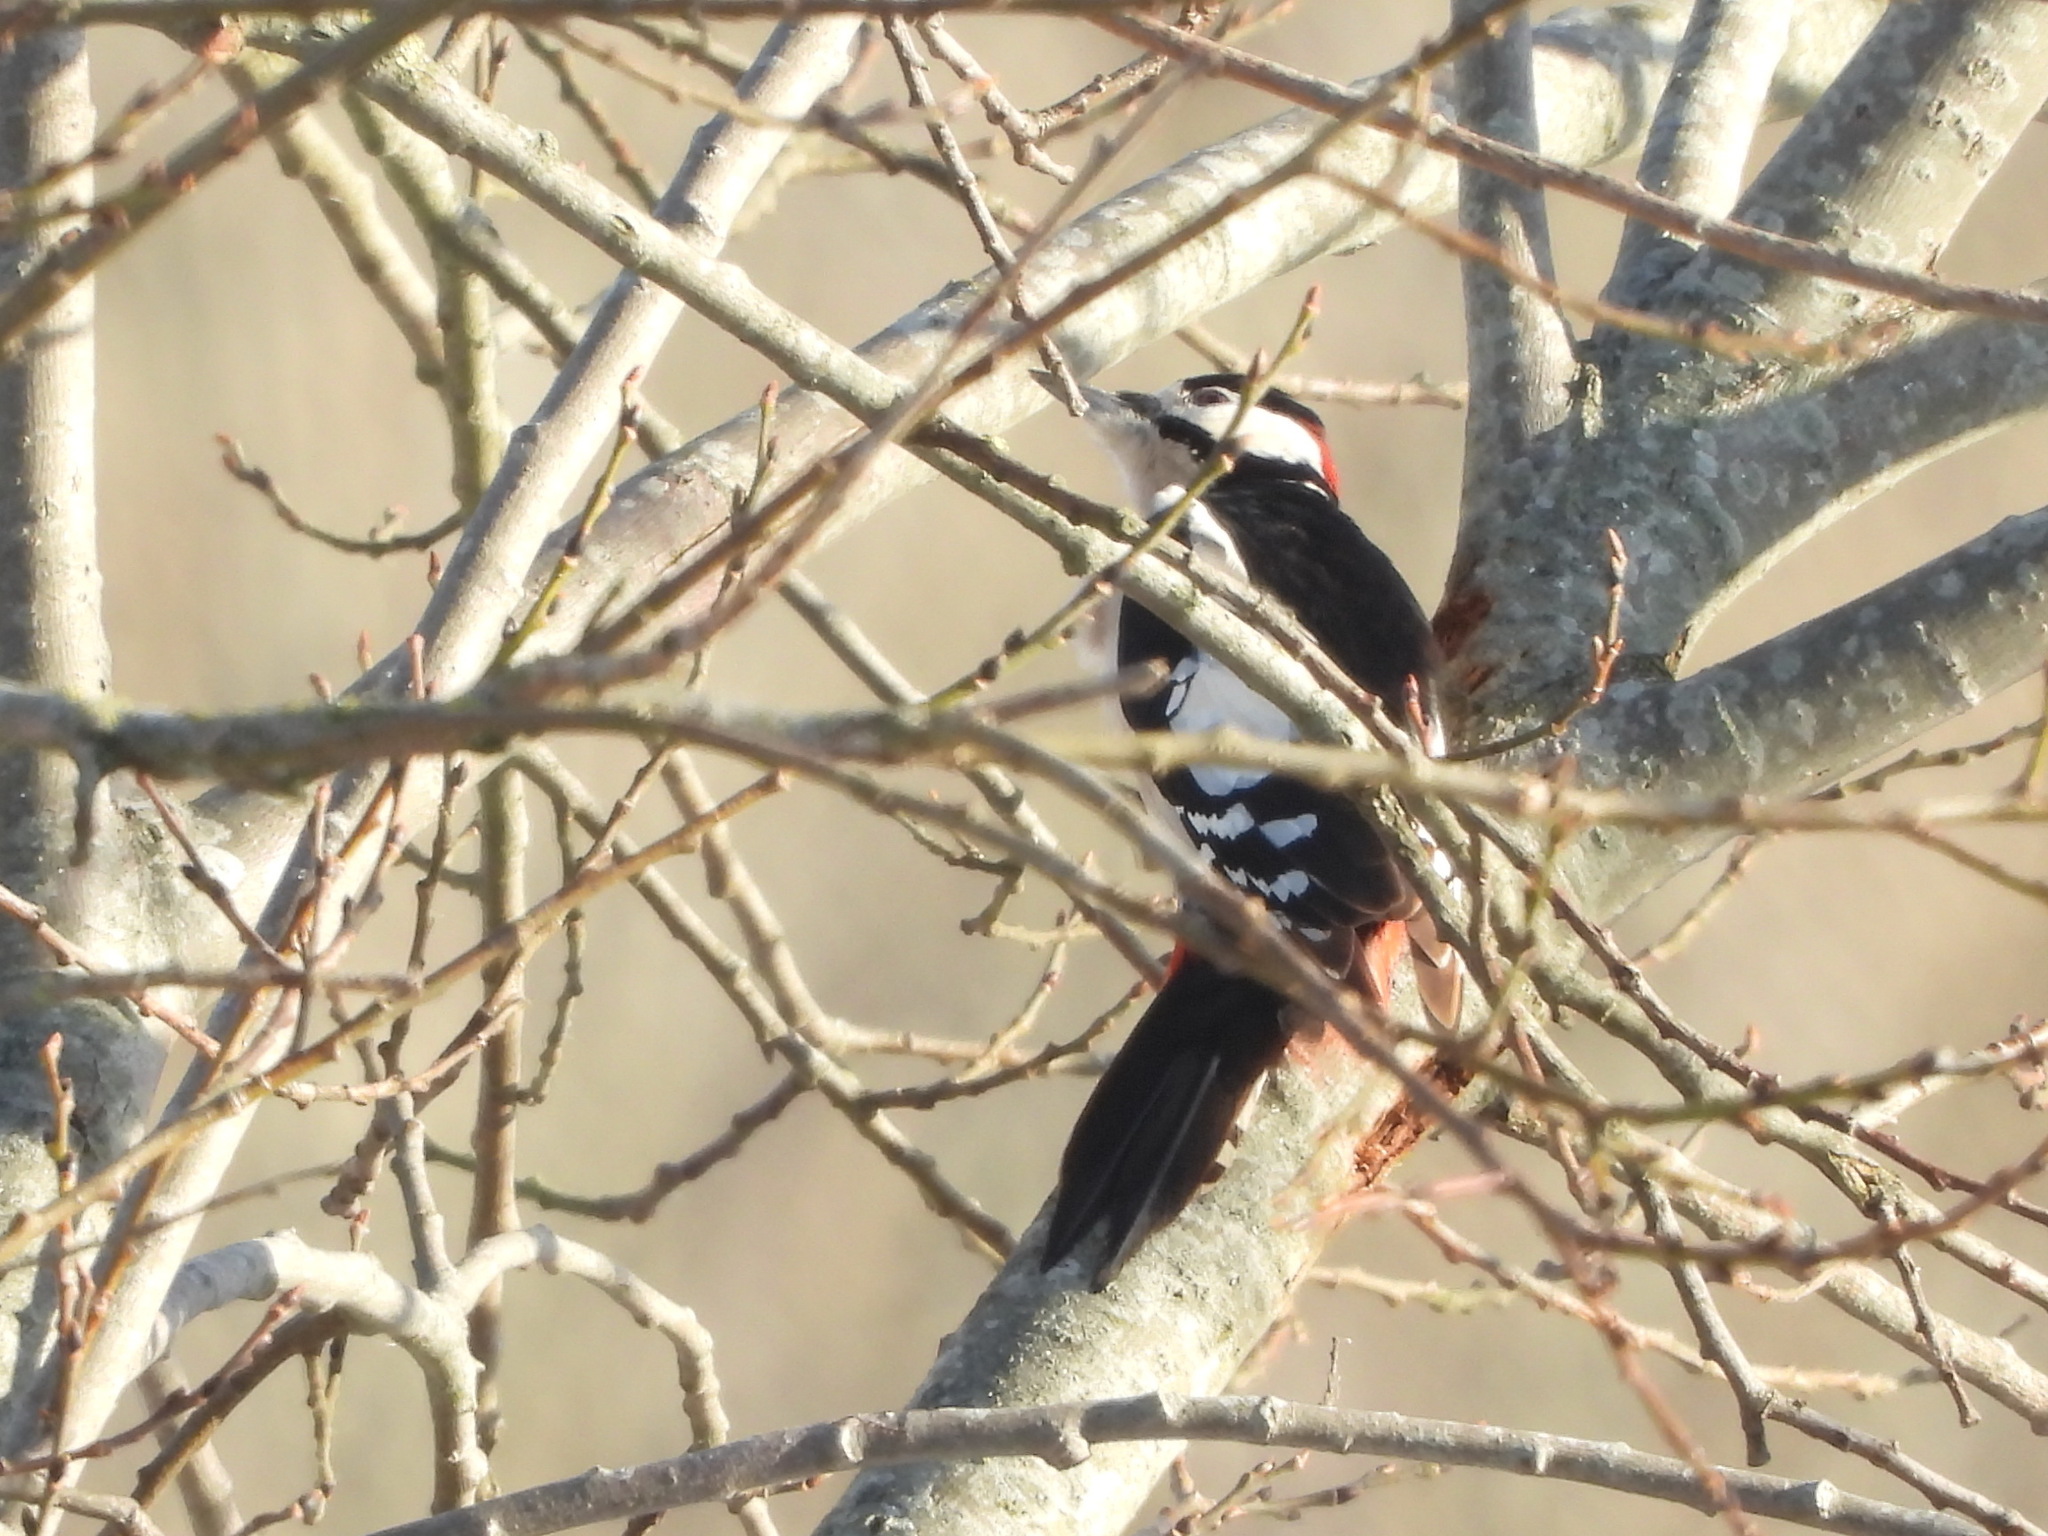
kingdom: Animalia
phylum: Chordata
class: Aves
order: Piciformes
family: Picidae
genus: Dendrocopos
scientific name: Dendrocopos major
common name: Great spotted woodpecker
